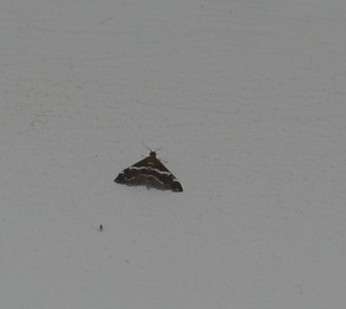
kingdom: Animalia
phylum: Arthropoda
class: Insecta
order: Lepidoptera
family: Crambidae
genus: Spoladea
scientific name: Spoladea recurvalis
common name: Beet webworm moth
